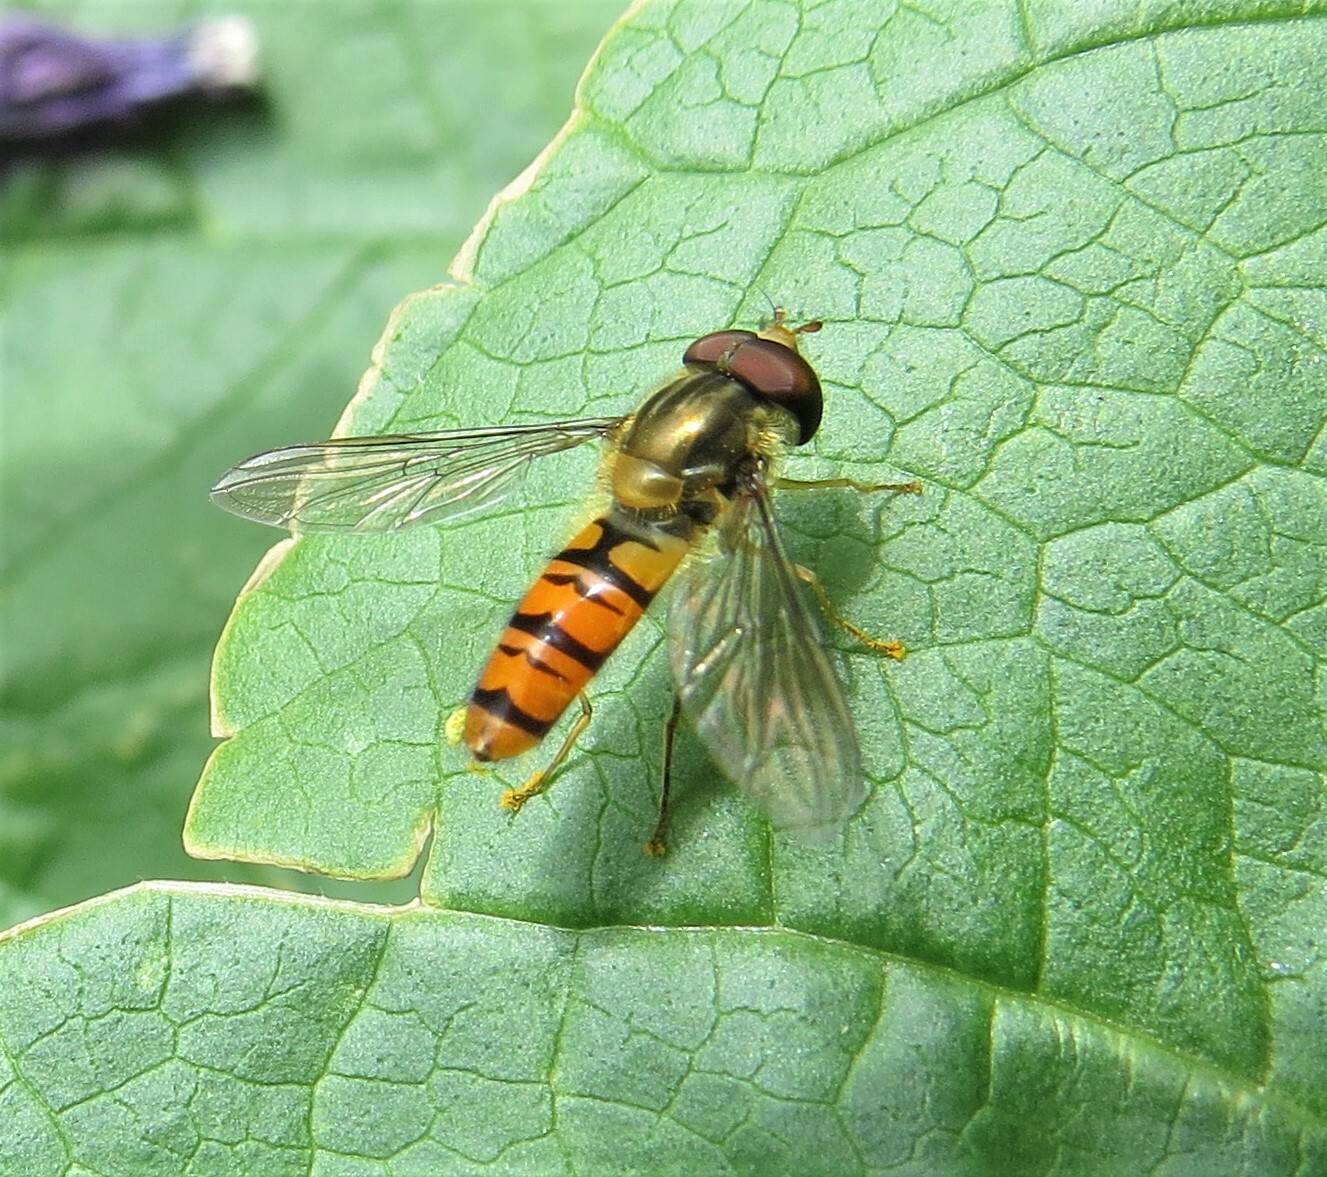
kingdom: Animalia
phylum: Arthropoda
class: Insecta
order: Diptera
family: Syrphidae
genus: Episyrphus
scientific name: Episyrphus balteatus
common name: Marmalade hoverfly
